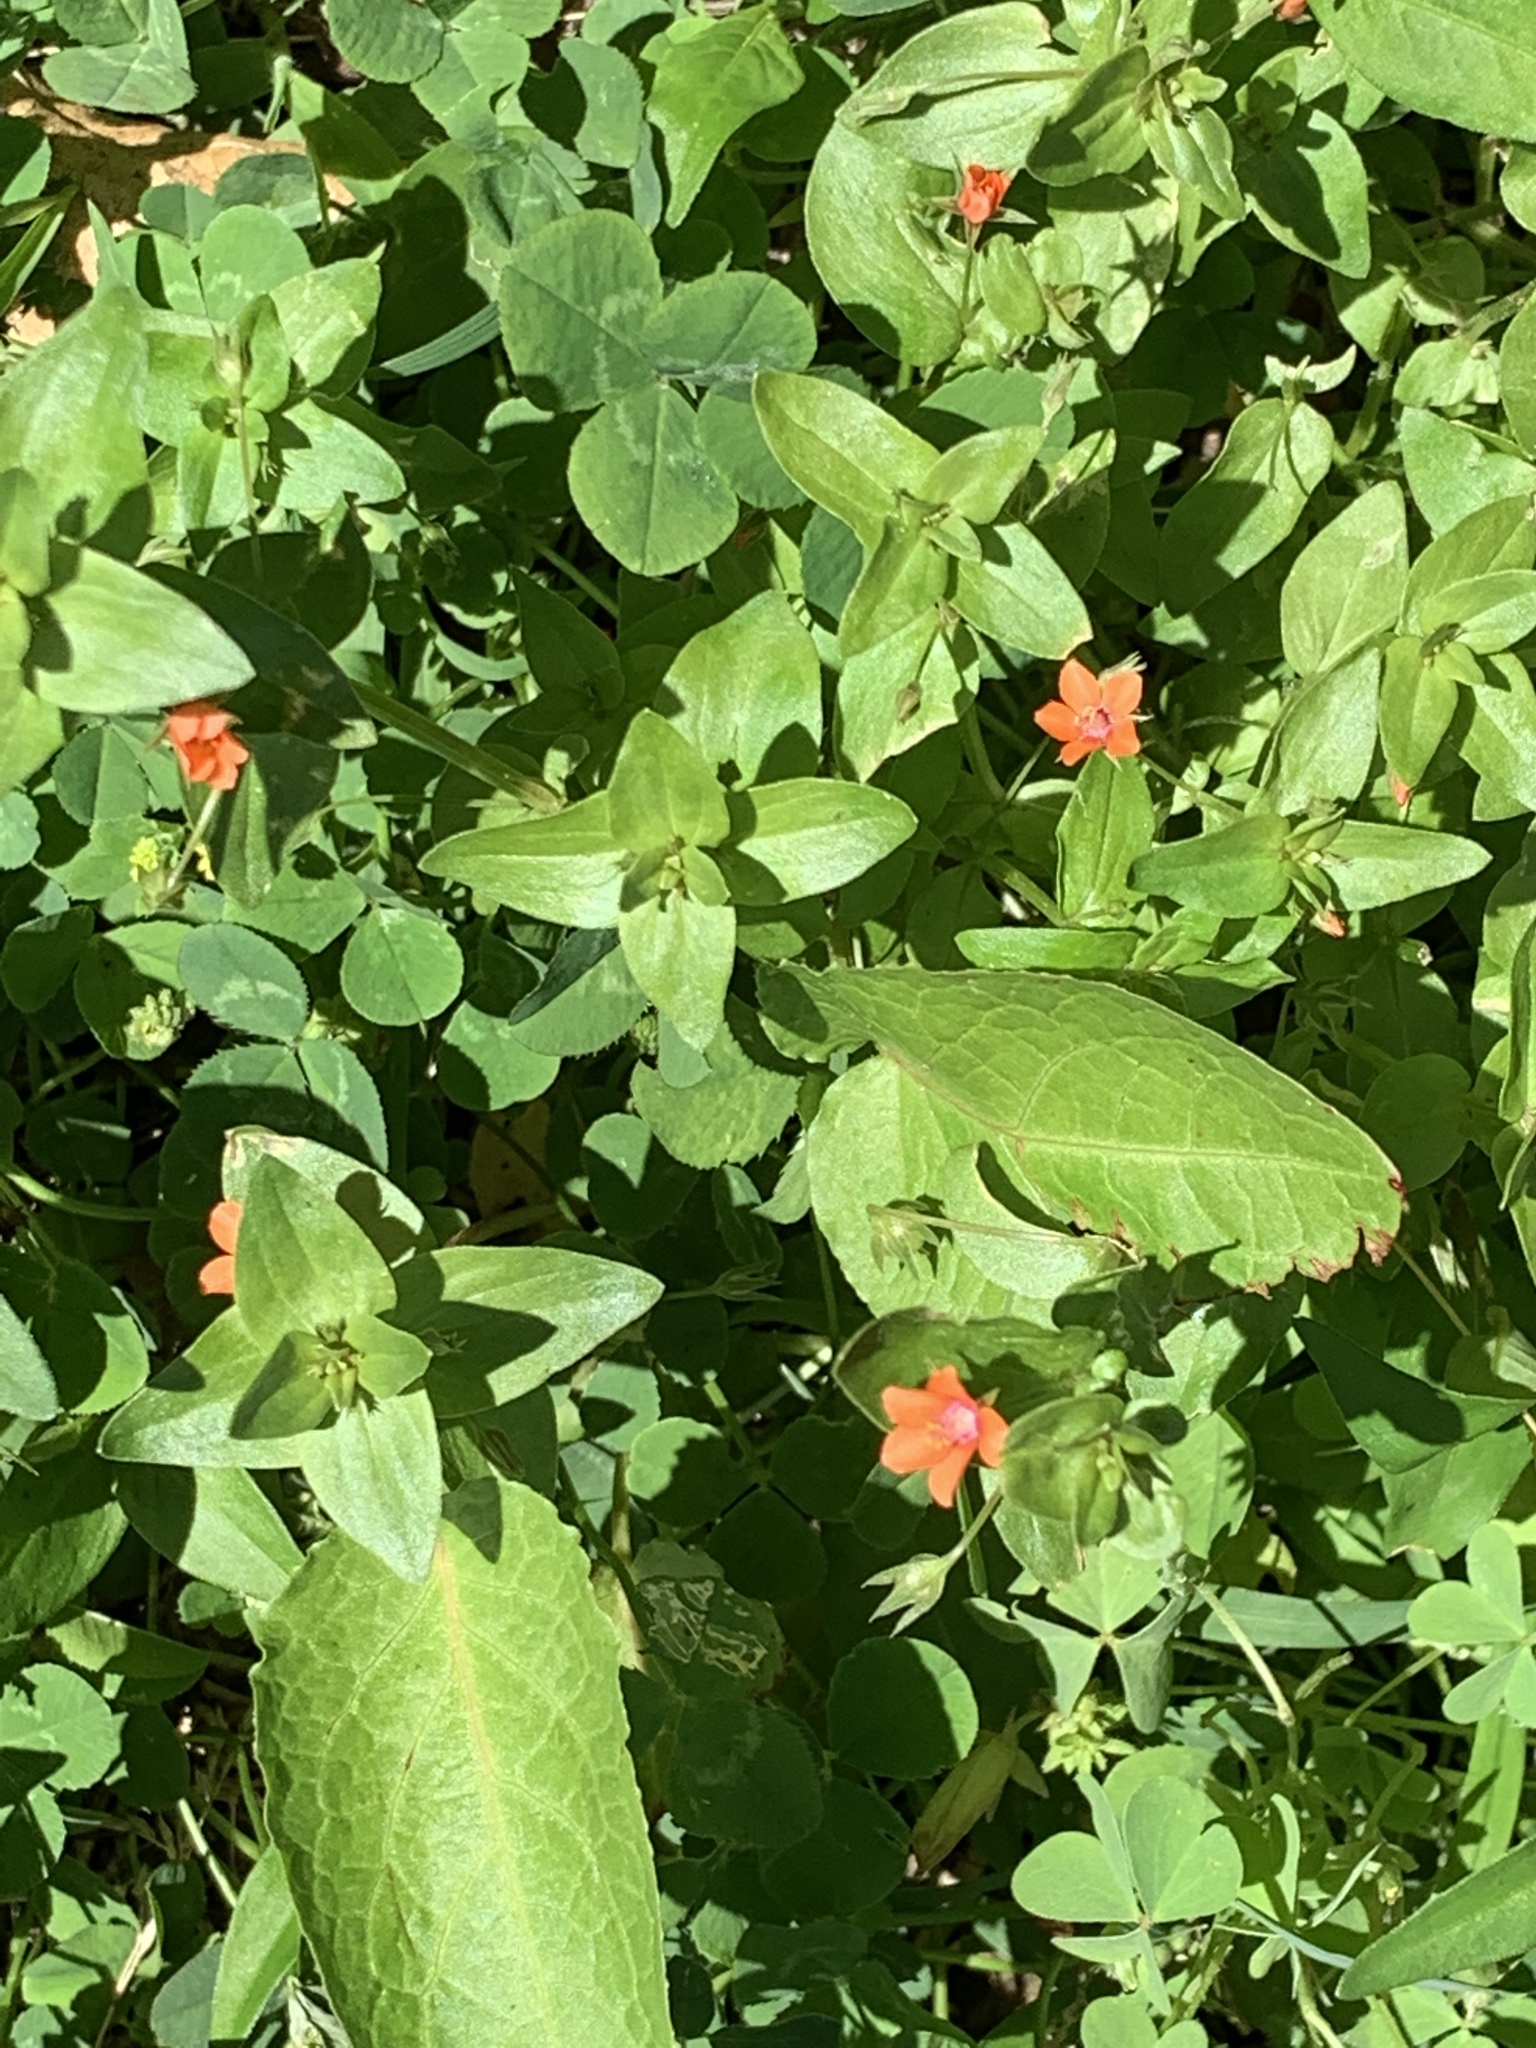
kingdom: Plantae
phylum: Tracheophyta
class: Magnoliopsida
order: Ericales
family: Primulaceae
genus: Lysimachia
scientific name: Lysimachia arvensis
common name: Scarlet pimpernel
